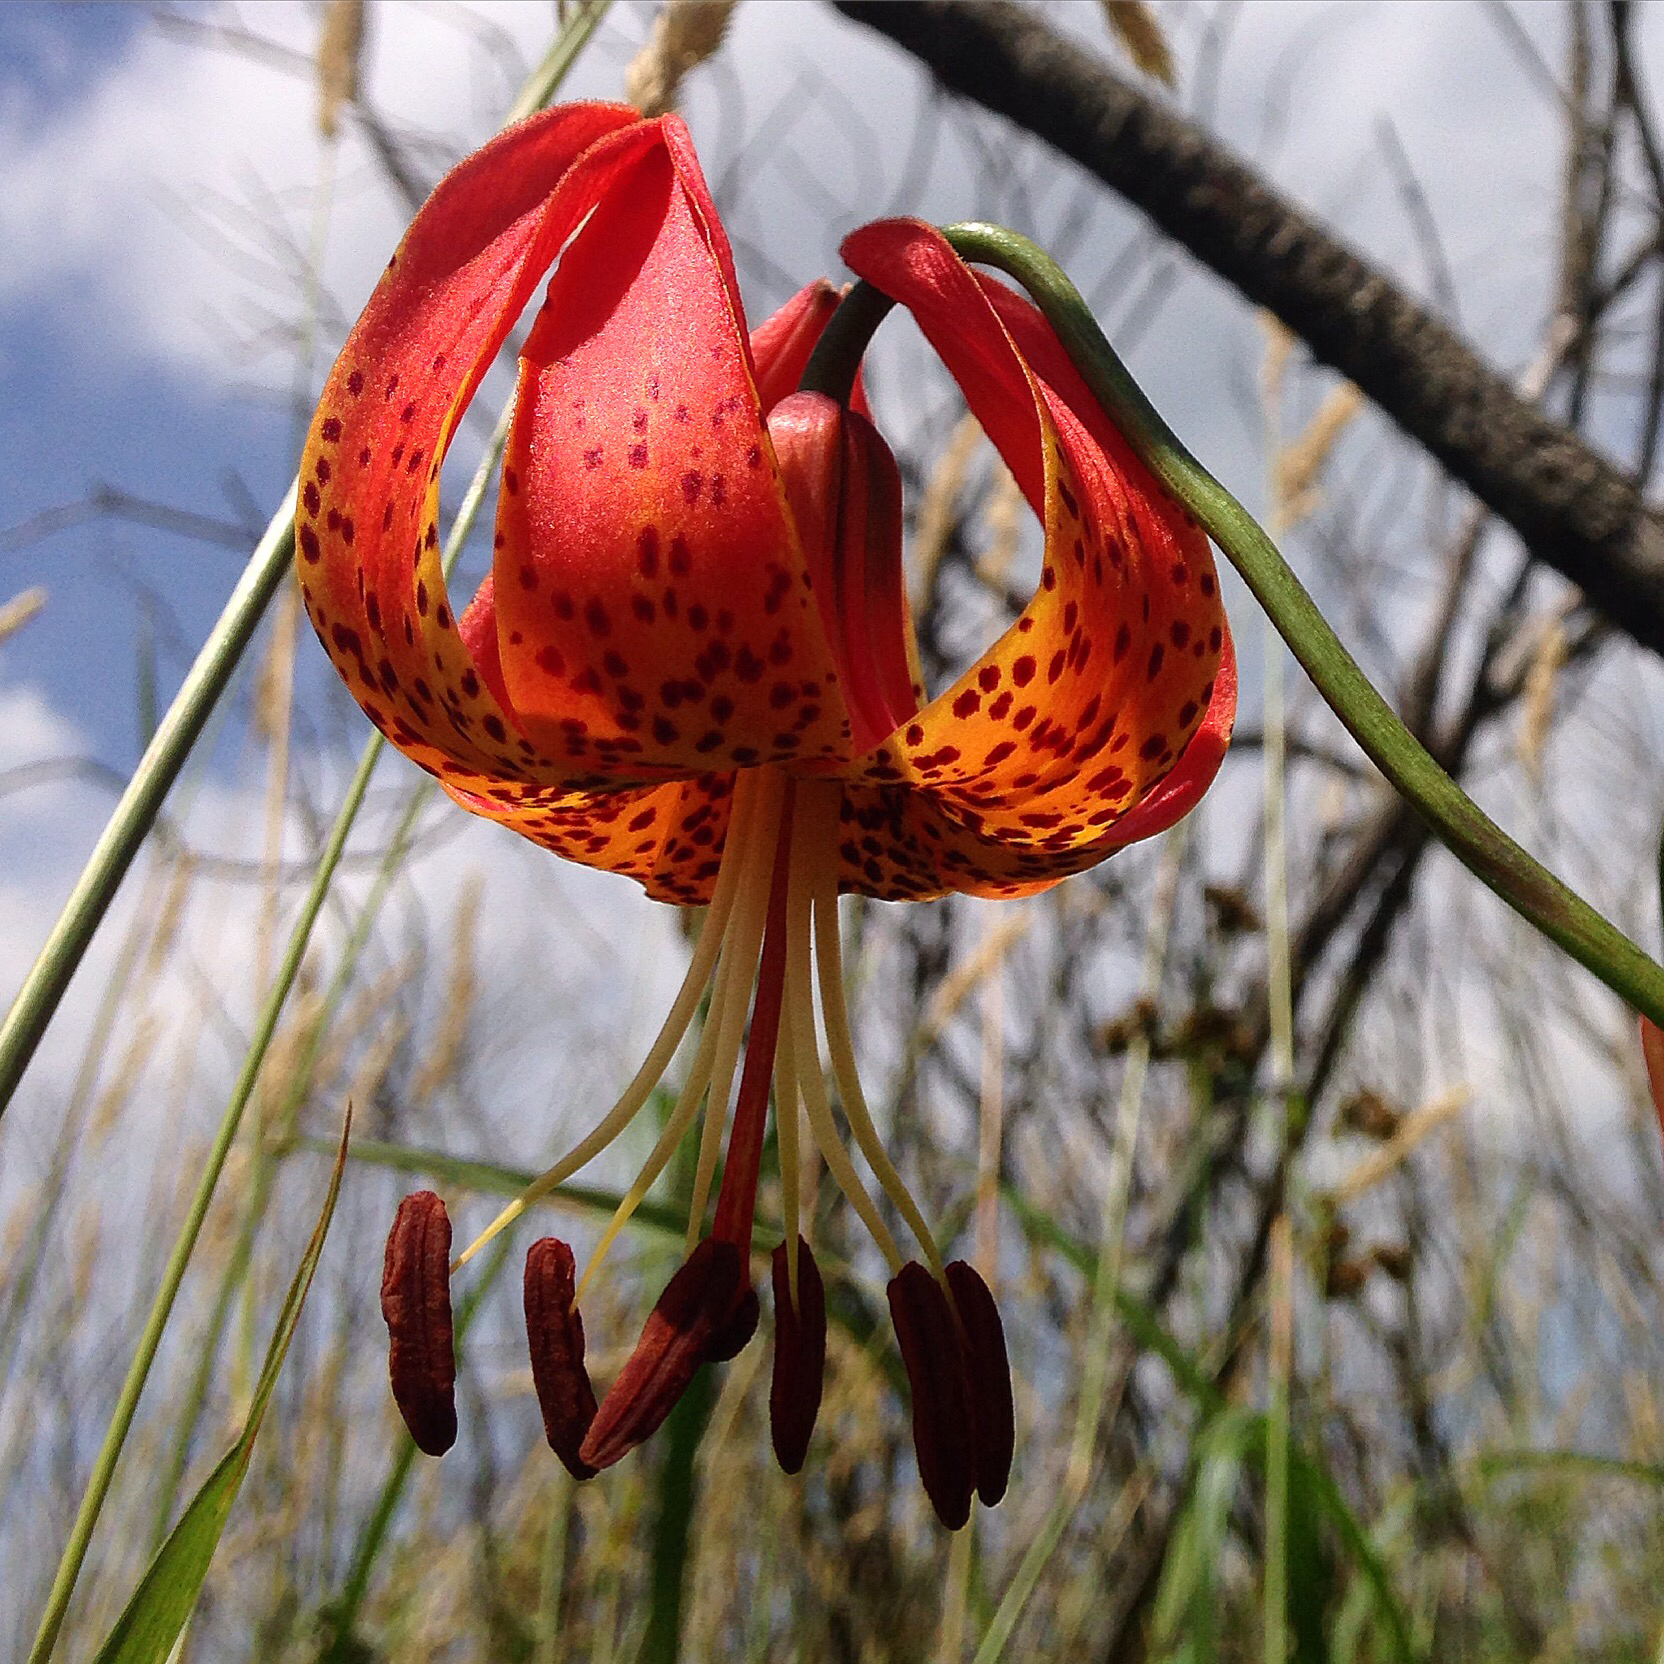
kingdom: Plantae
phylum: Tracheophyta
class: Liliopsida
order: Liliales
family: Liliaceae
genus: Lilium
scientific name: Lilium michiganense
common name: Michigan lily
